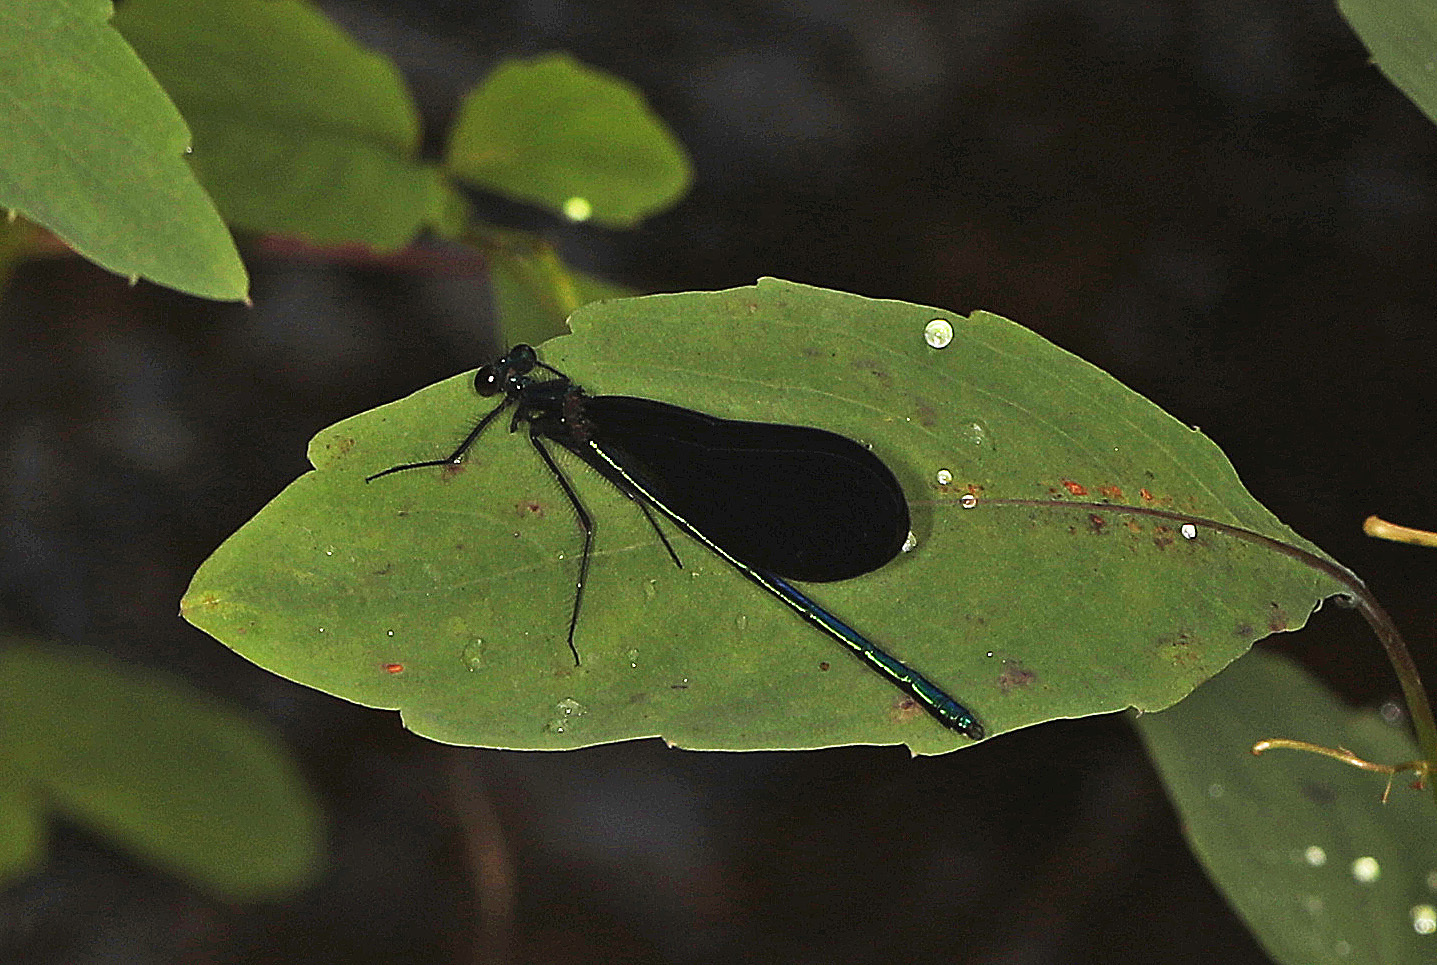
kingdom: Animalia
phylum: Arthropoda
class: Insecta
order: Odonata
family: Calopterygidae
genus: Calopteryx
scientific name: Calopteryx maculata
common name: Ebony jewelwing
